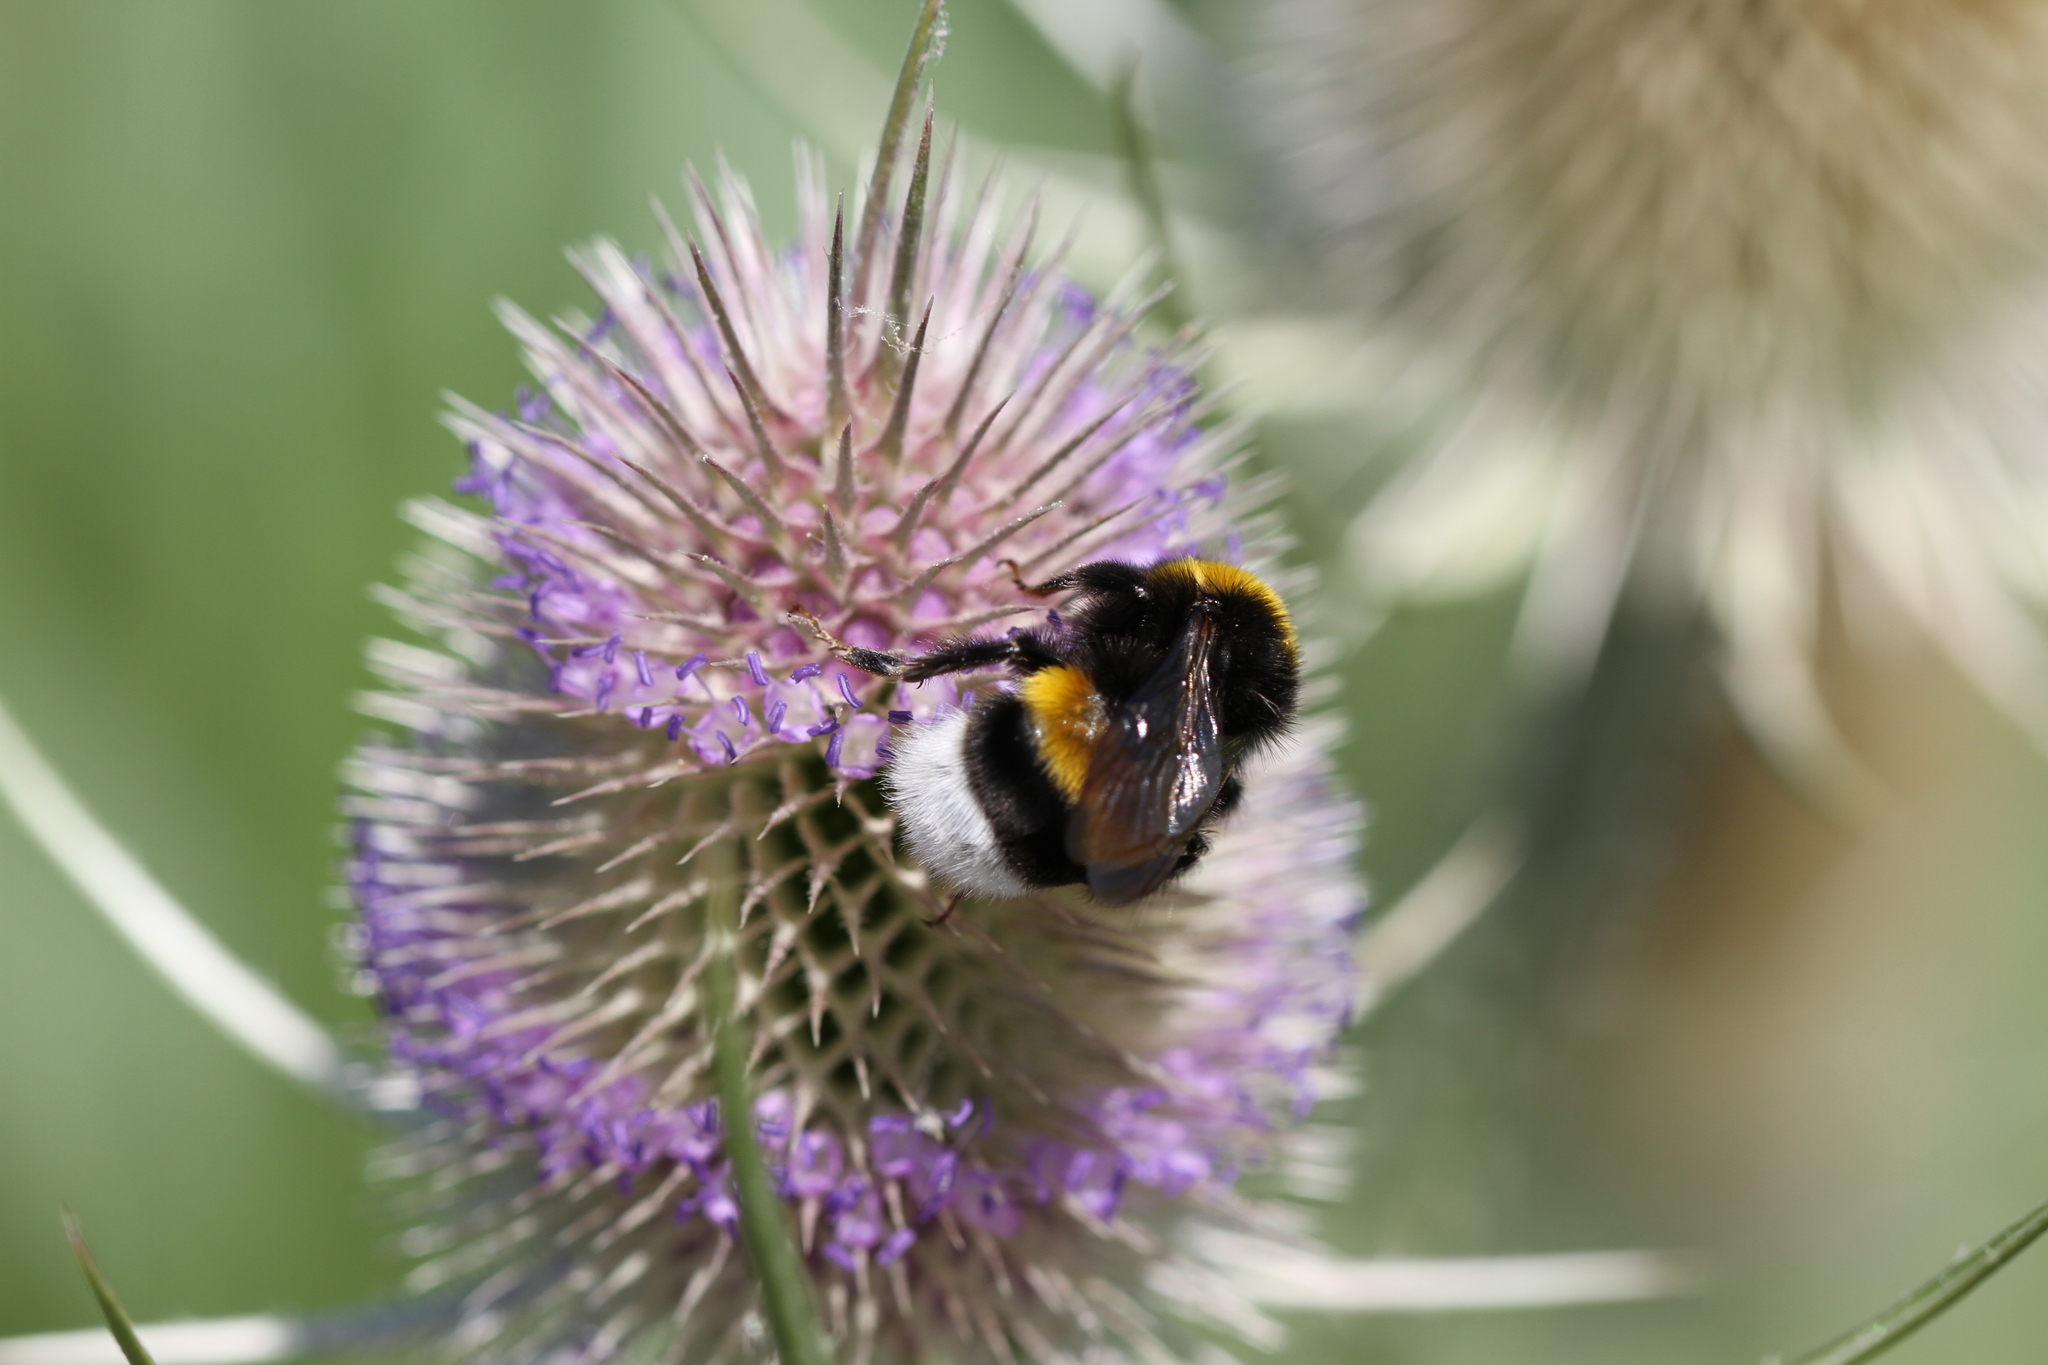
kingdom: Animalia
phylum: Arthropoda
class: Insecta
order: Hymenoptera
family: Apidae
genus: Bombus
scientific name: Bombus
